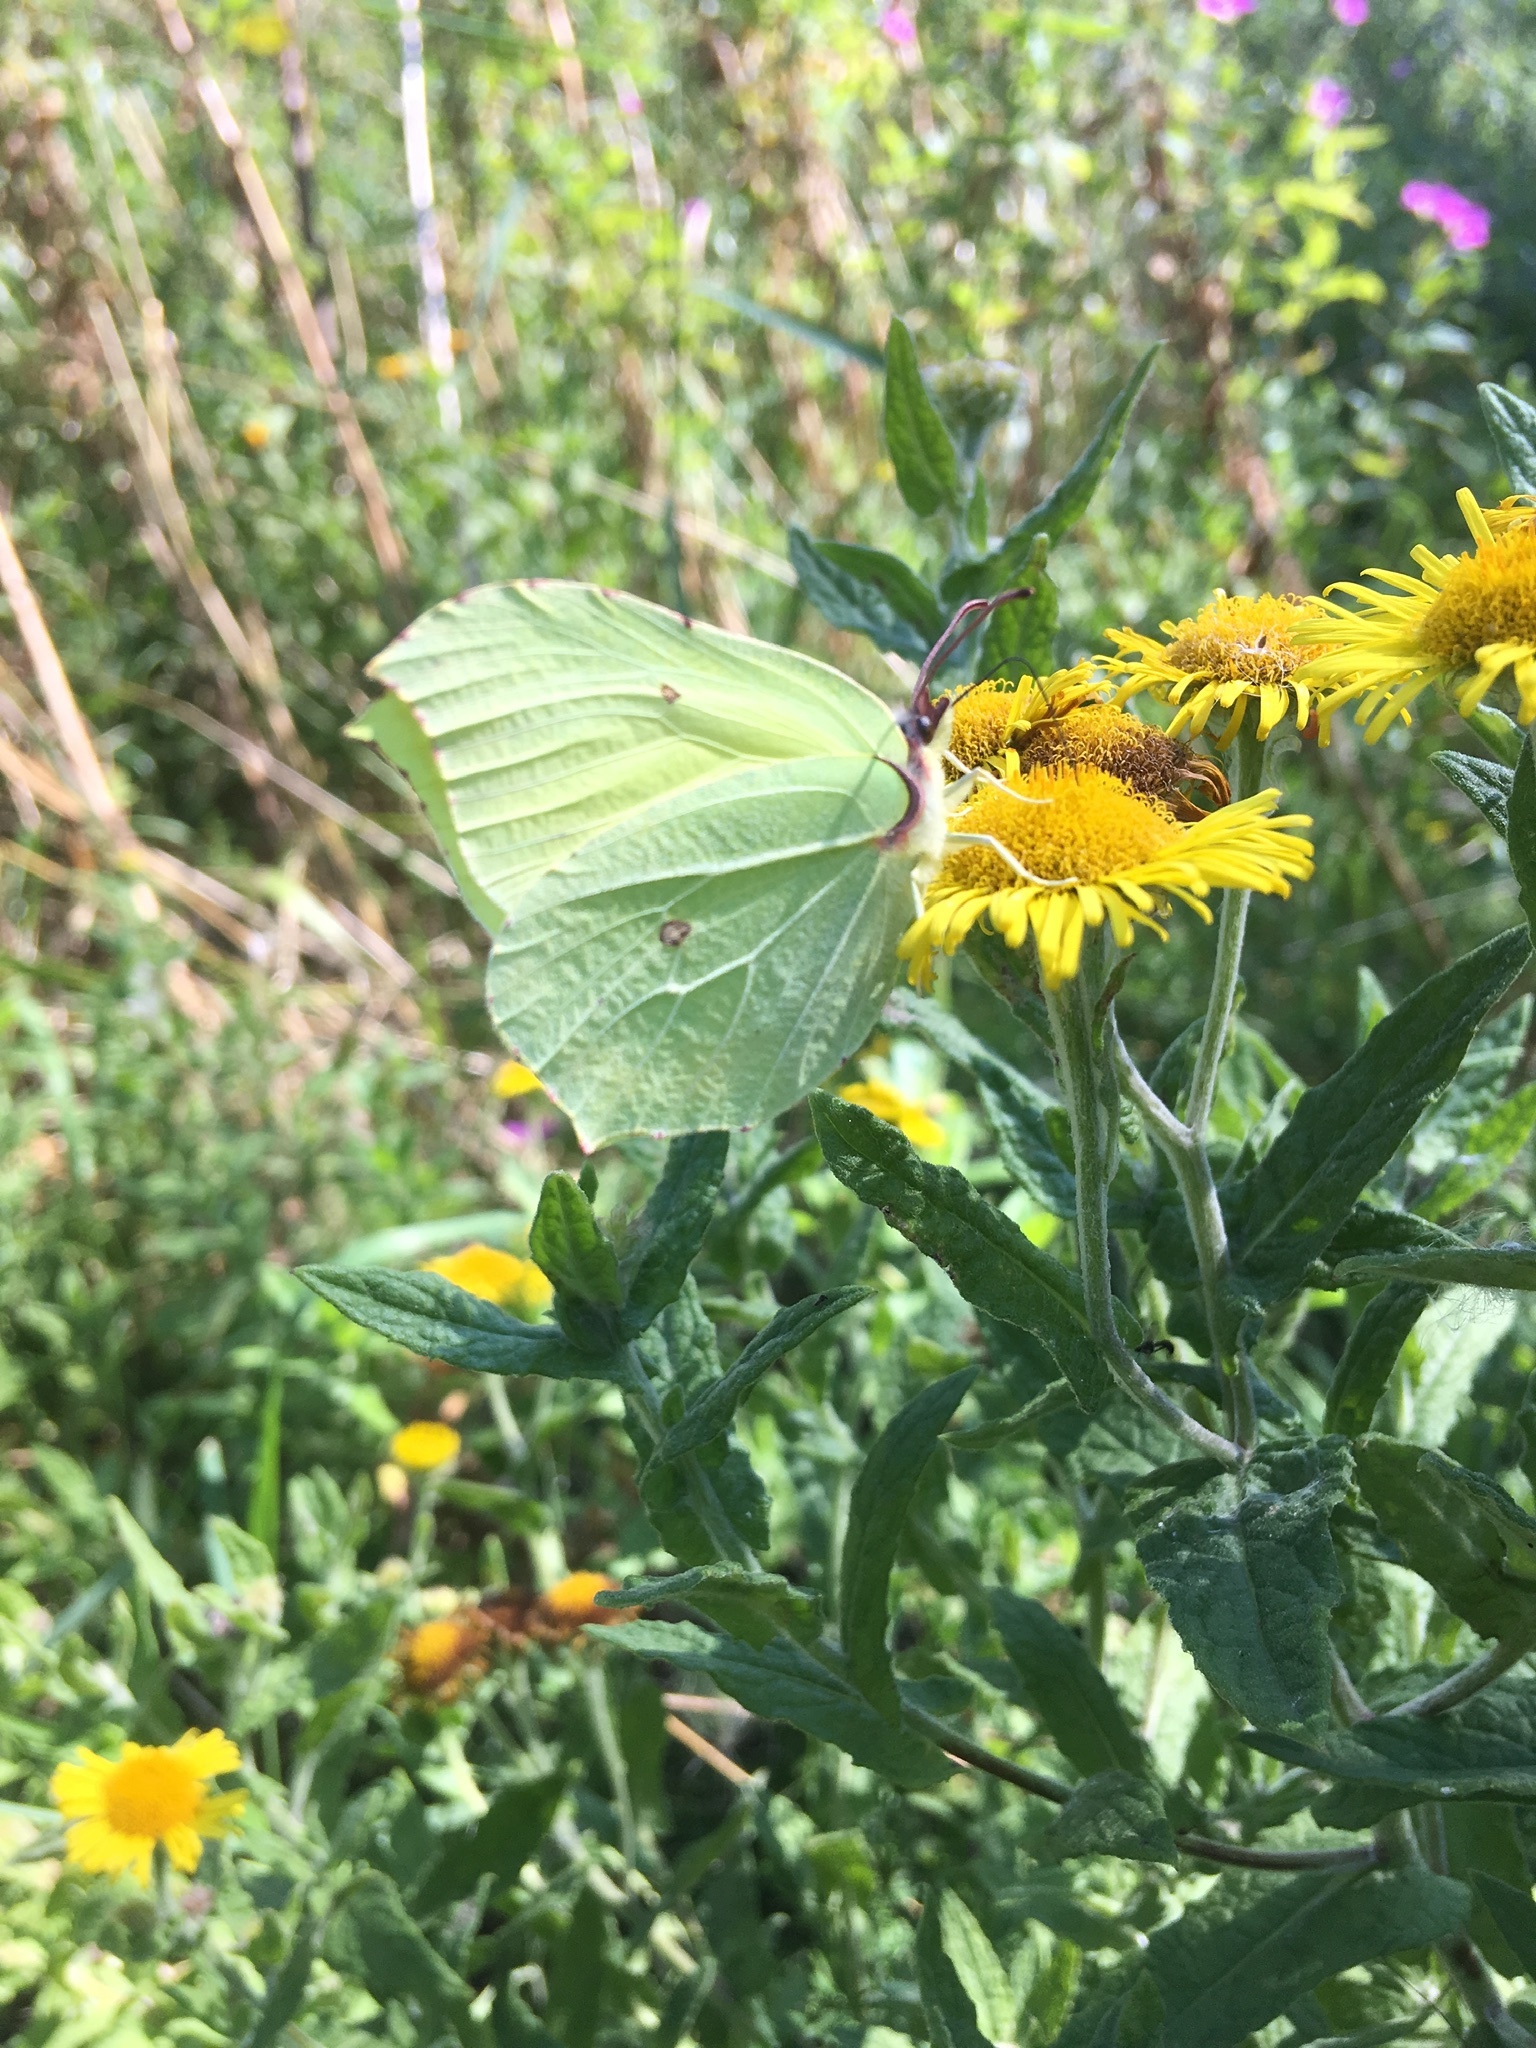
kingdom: Animalia
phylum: Arthropoda
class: Insecta
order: Lepidoptera
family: Pieridae
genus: Gonepteryx
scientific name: Gonepteryx rhamni
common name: Brimstone
